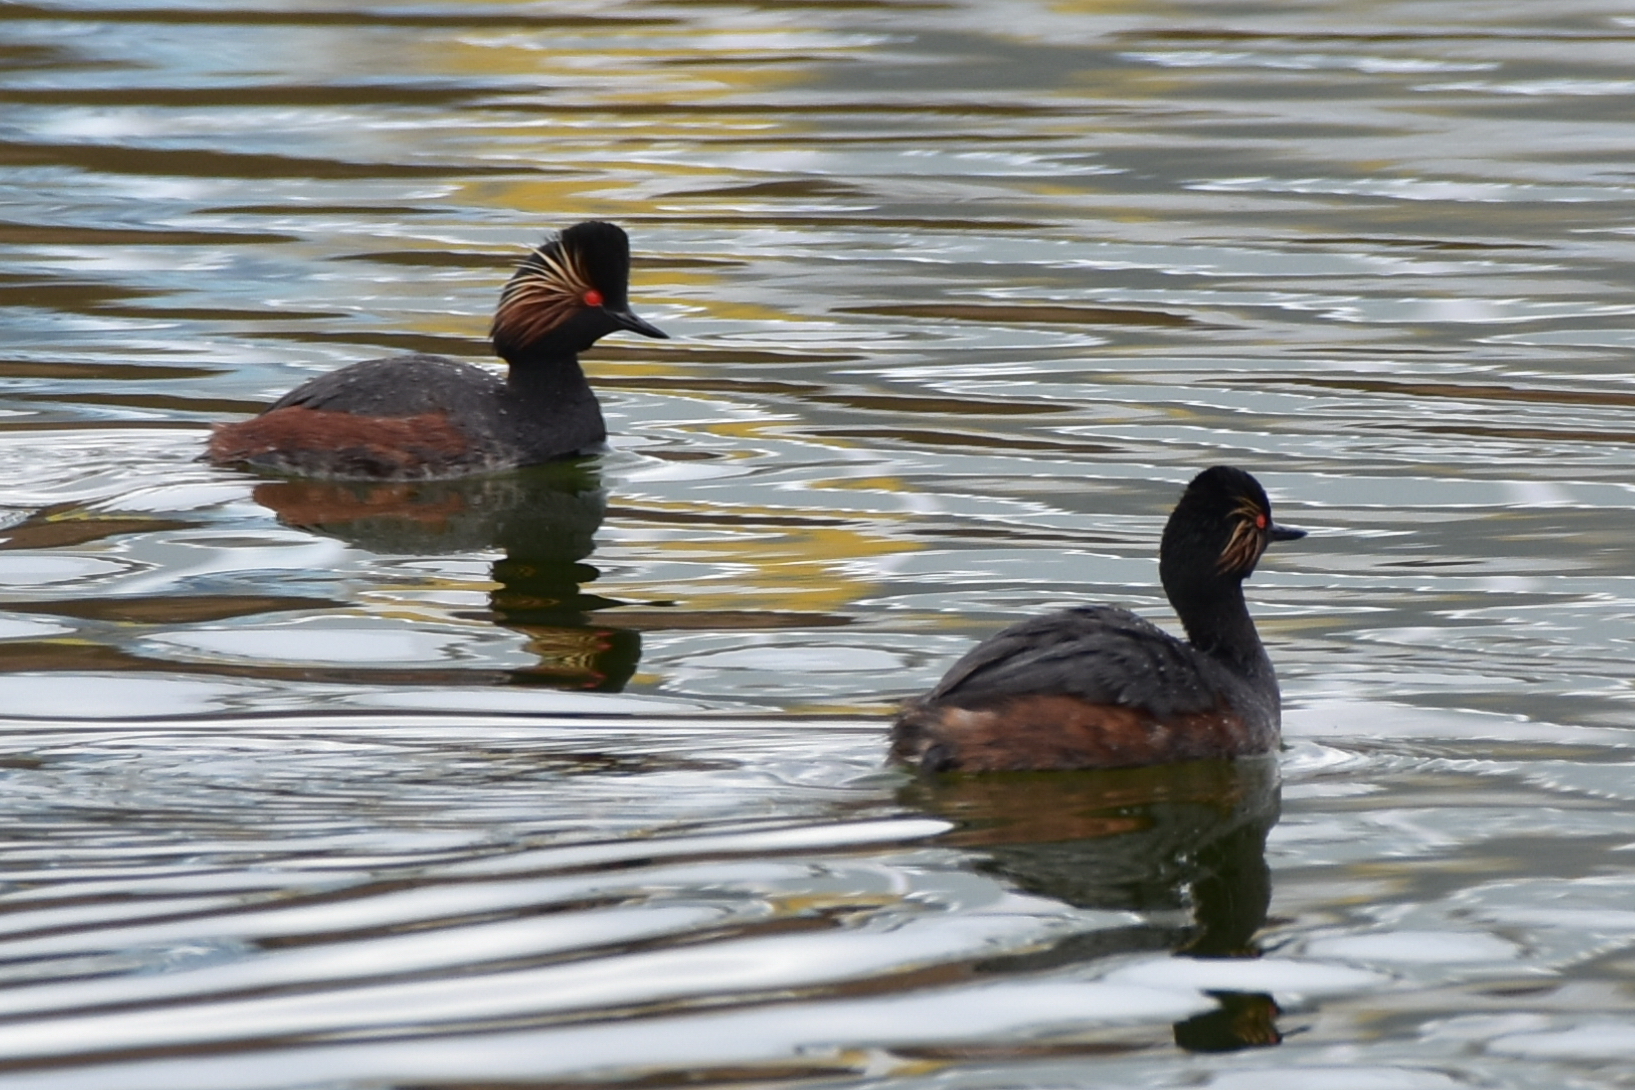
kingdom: Animalia
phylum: Chordata
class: Aves
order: Podicipediformes
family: Podicipedidae
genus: Podiceps
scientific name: Podiceps nigricollis
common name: Black-necked grebe
